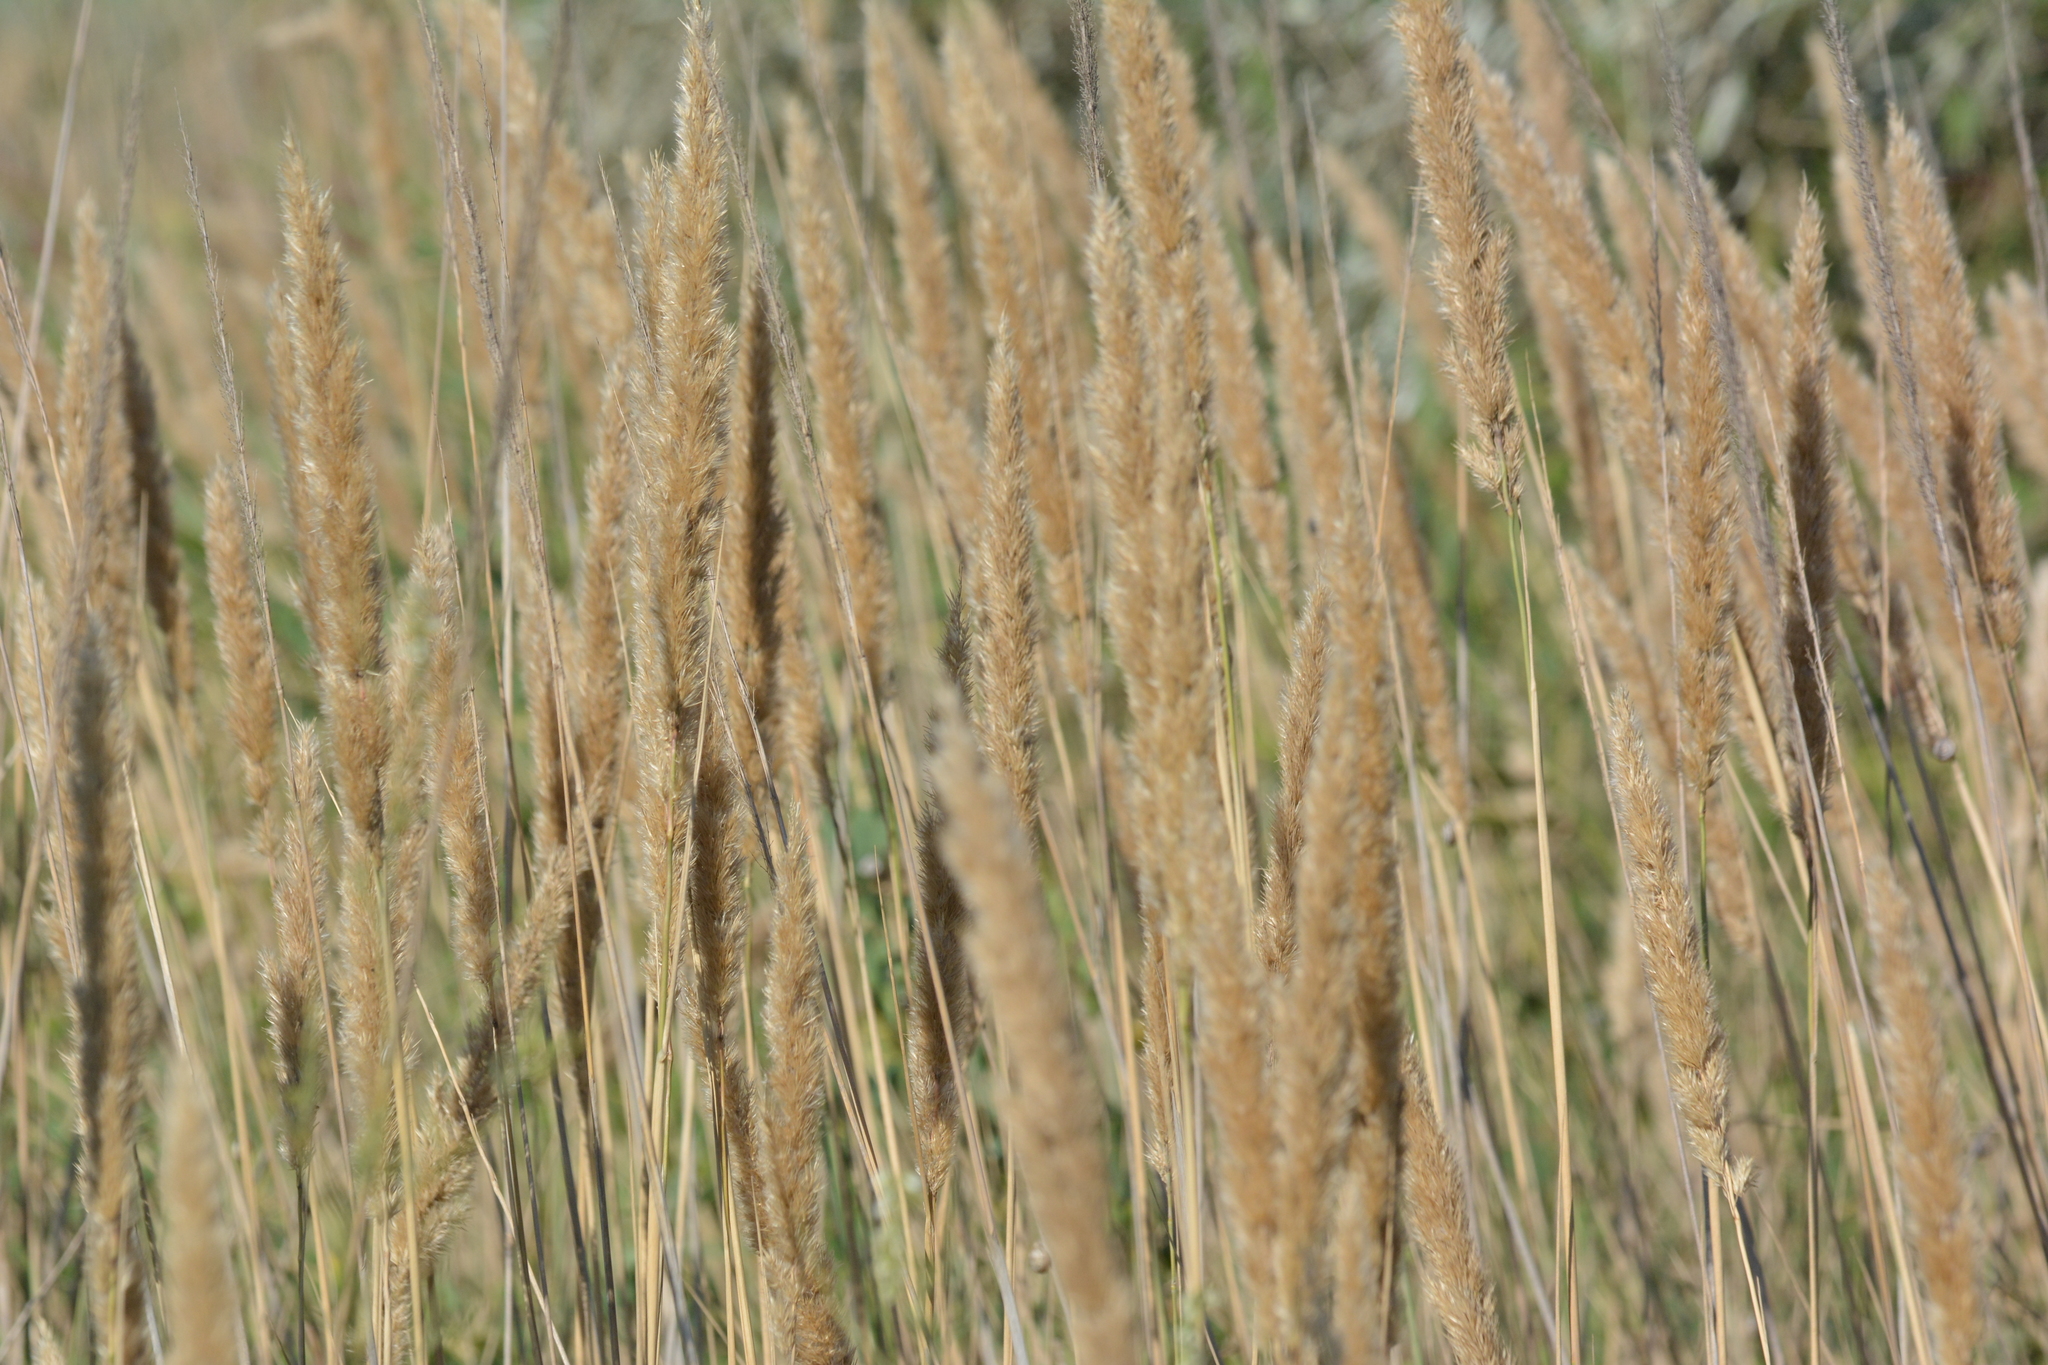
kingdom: Plantae
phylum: Tracheophyta
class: Liliopsida
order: Poales
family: Poaceae
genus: Calamagrostis
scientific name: Calamagrostis epigejos
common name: Wood small-reed
